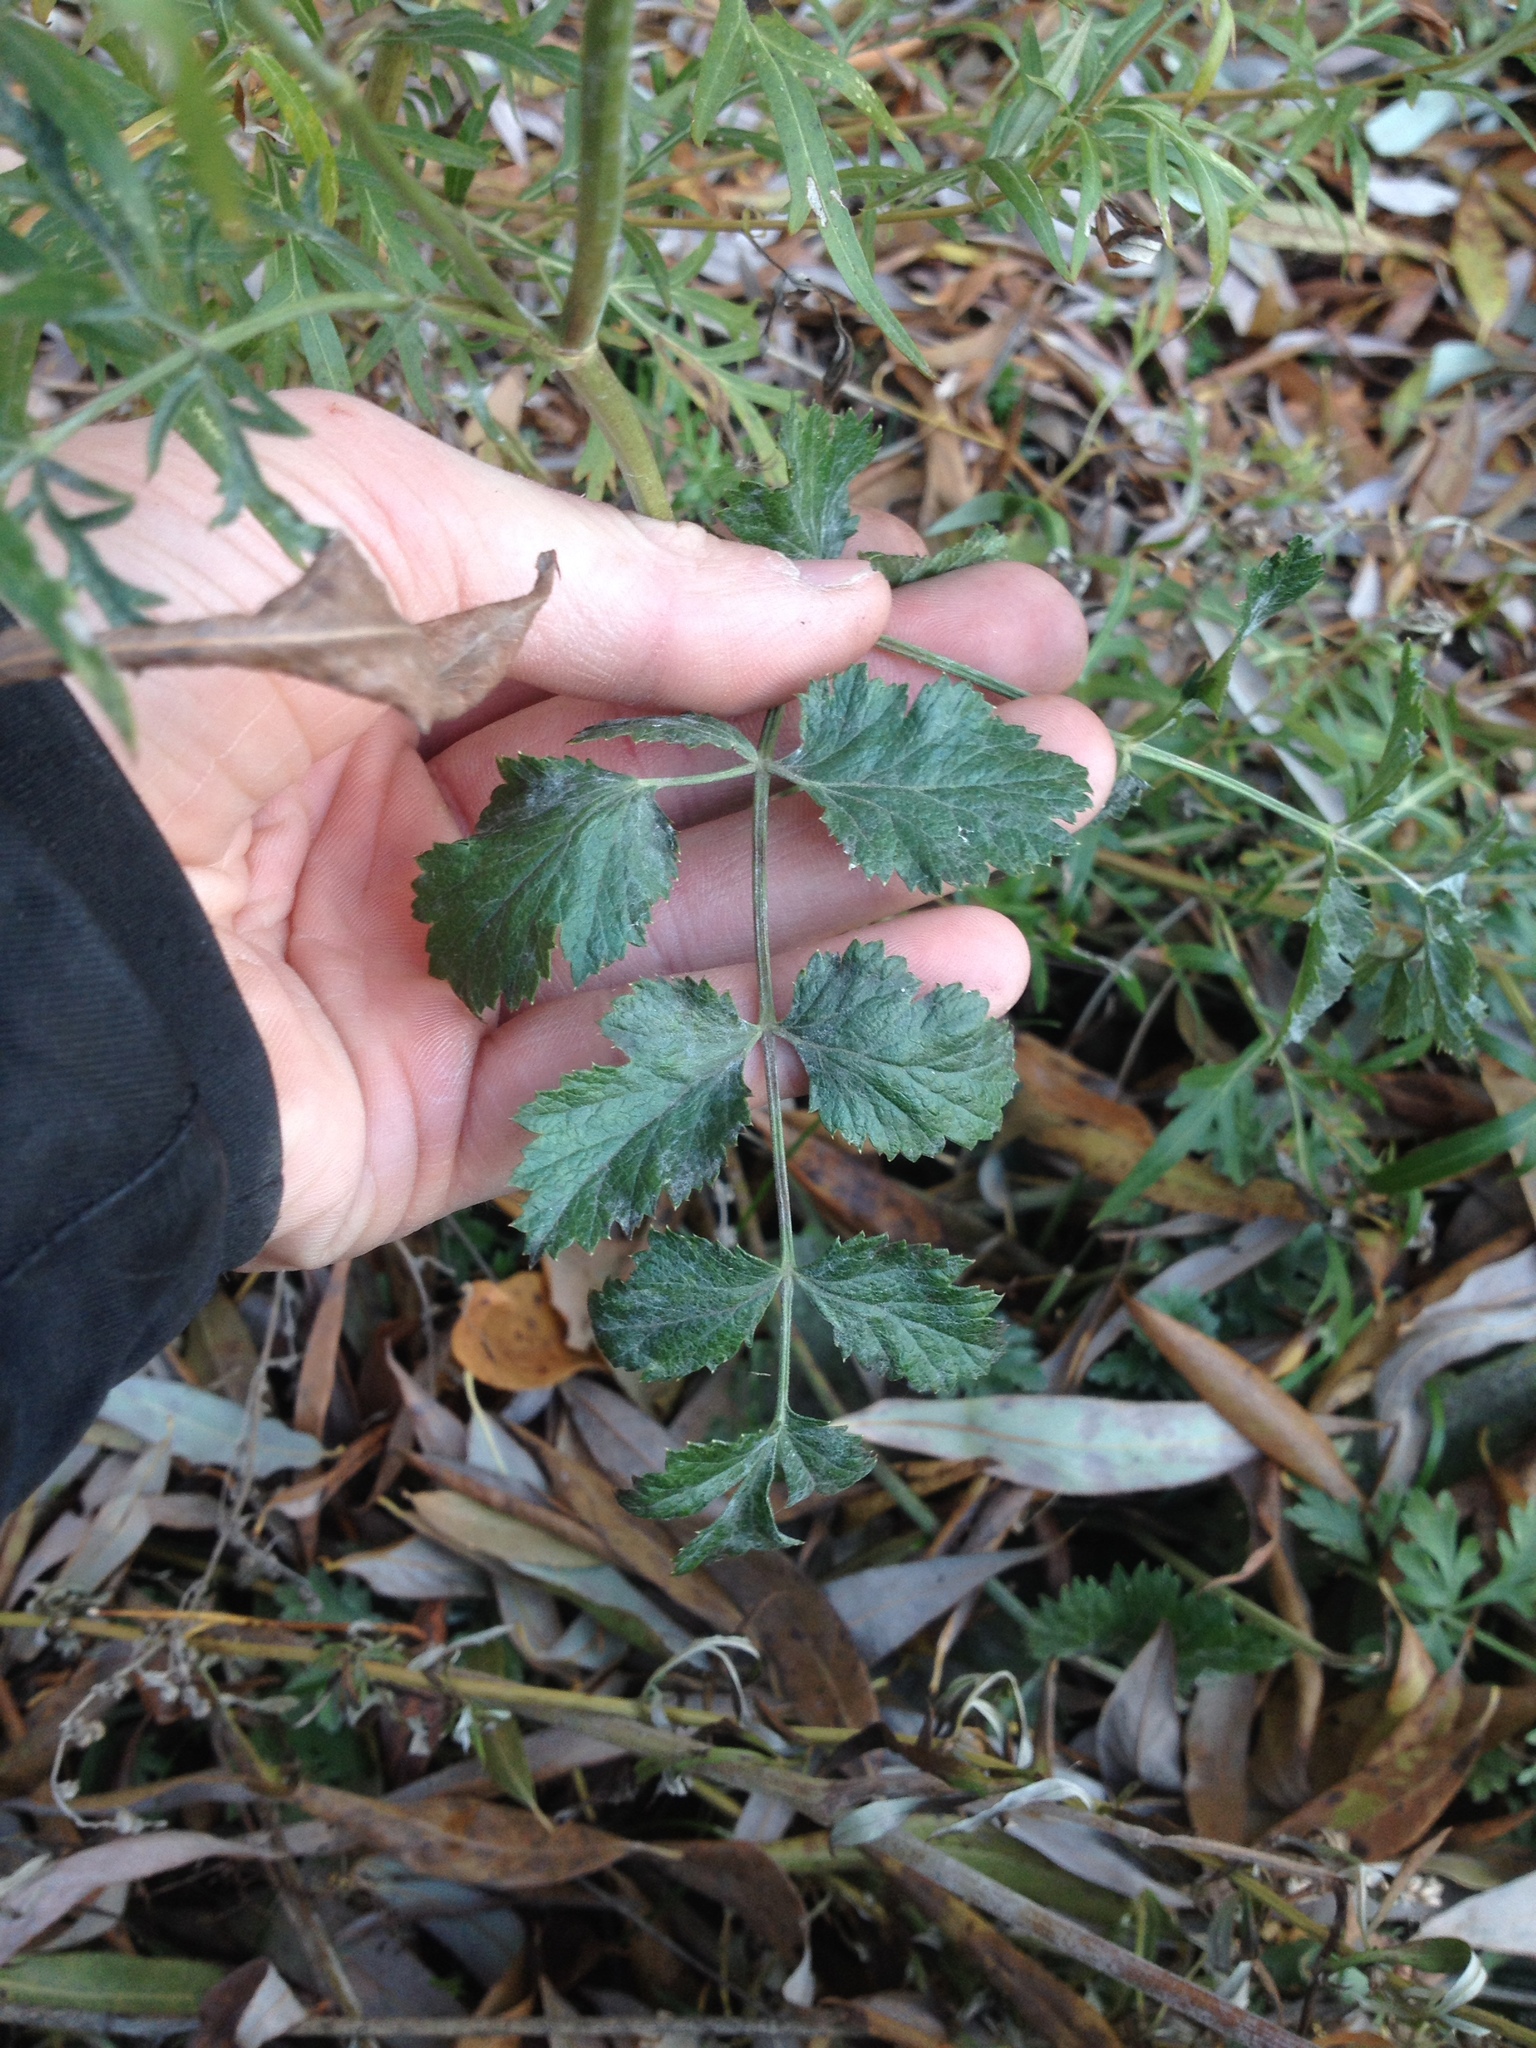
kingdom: Plantae
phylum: Tracheophyta
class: Magnoliopsida
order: Apiales
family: Apiaceae
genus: Pimpinella
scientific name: Pimpinella saxifraga
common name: Burnet-saxifrage
